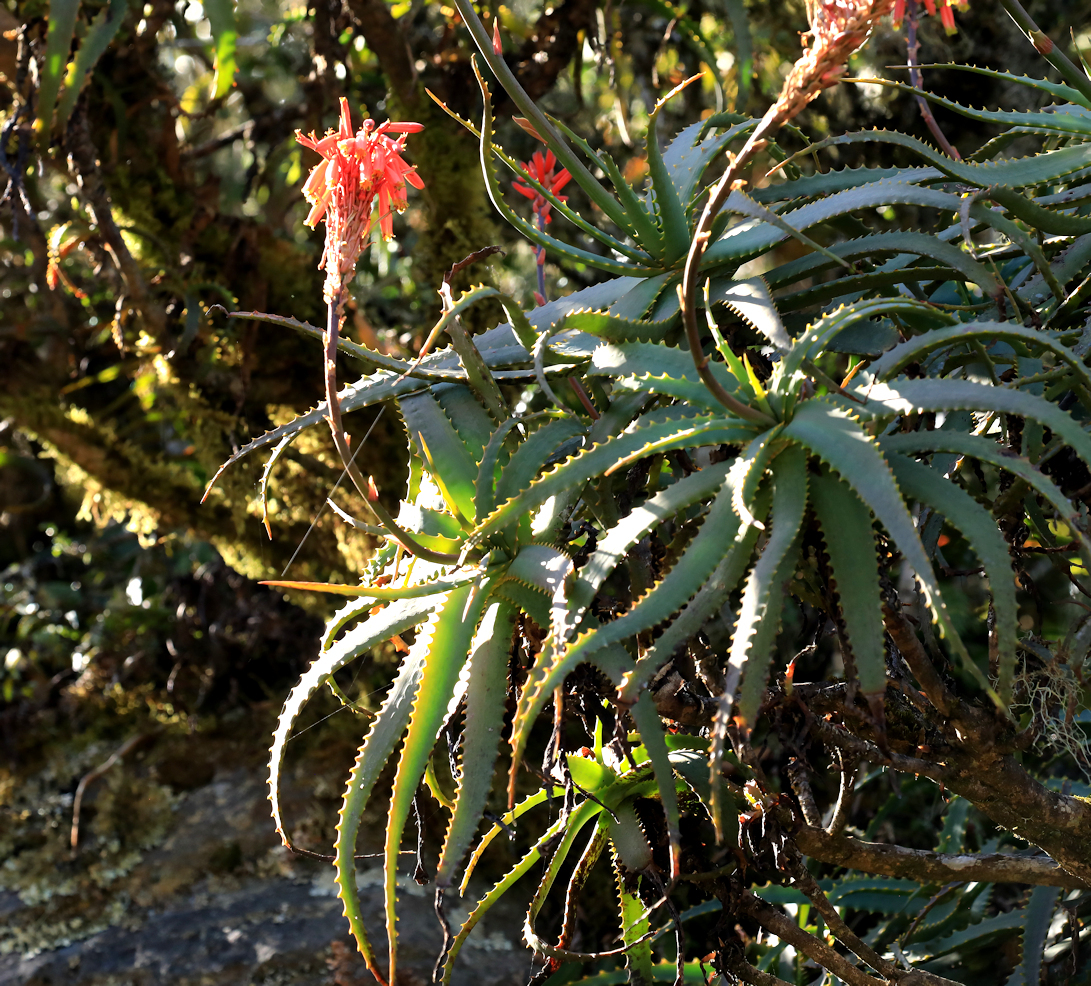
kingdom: Plantae
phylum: Tracheophyta
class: Liliopsida
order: Asparagales
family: Asphodelaceae
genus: Aloe
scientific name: Aloe arborescens
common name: Candelabra aloe
